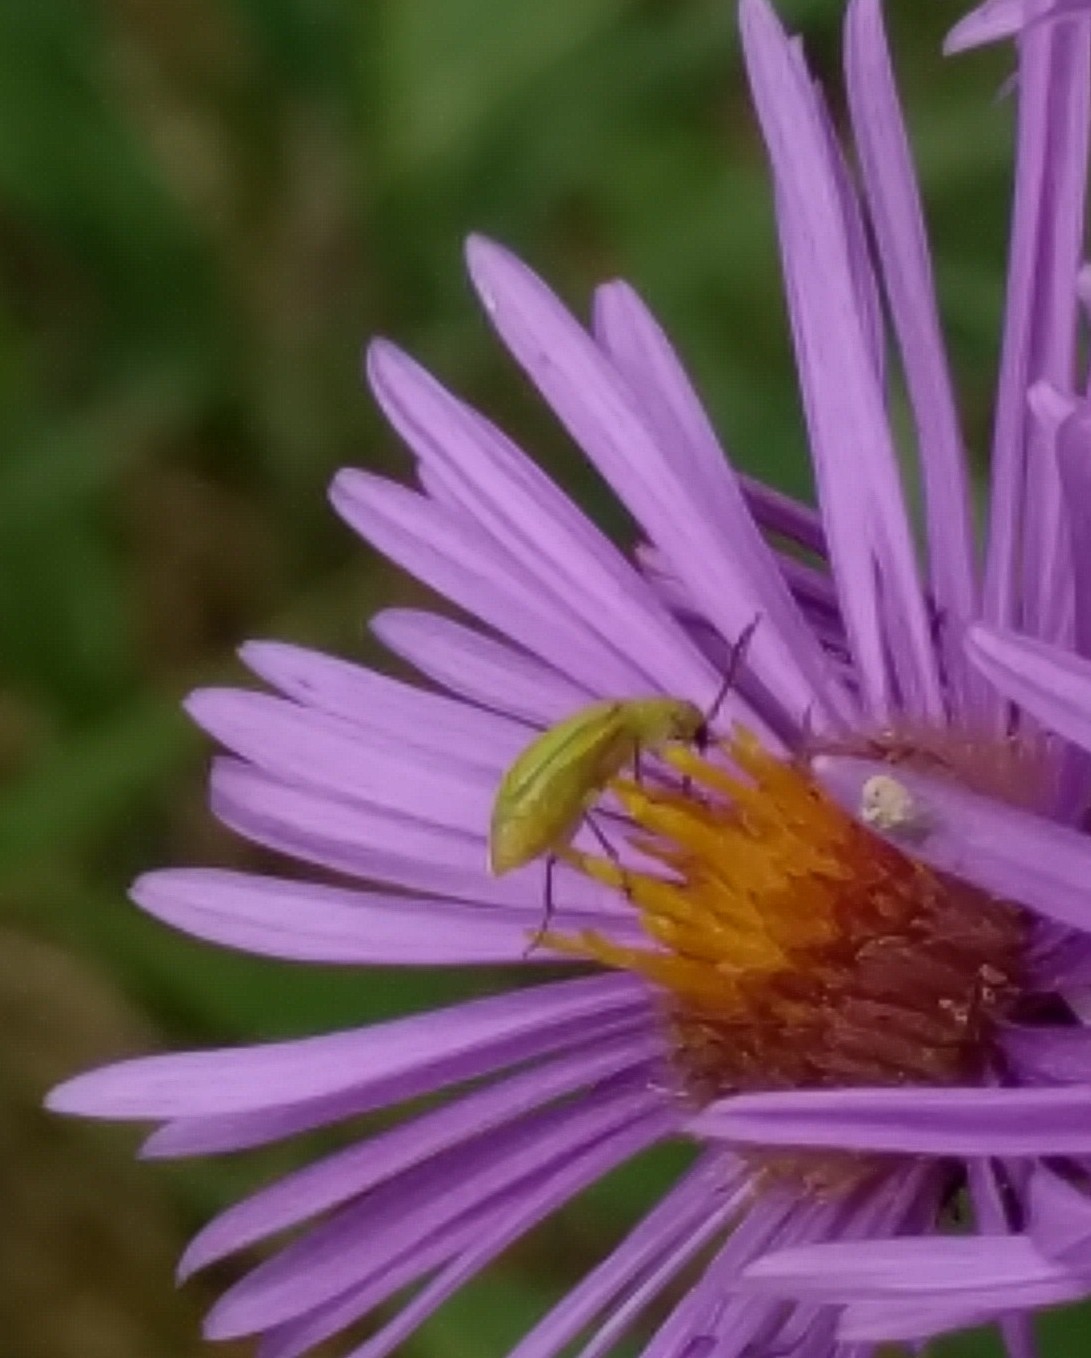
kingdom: Animalia
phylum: Arthropoda
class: Insecta
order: Coleoptera
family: Chrysomelidae
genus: Diabrotica
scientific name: Diabrotica barberi
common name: Northern corn rootworm
